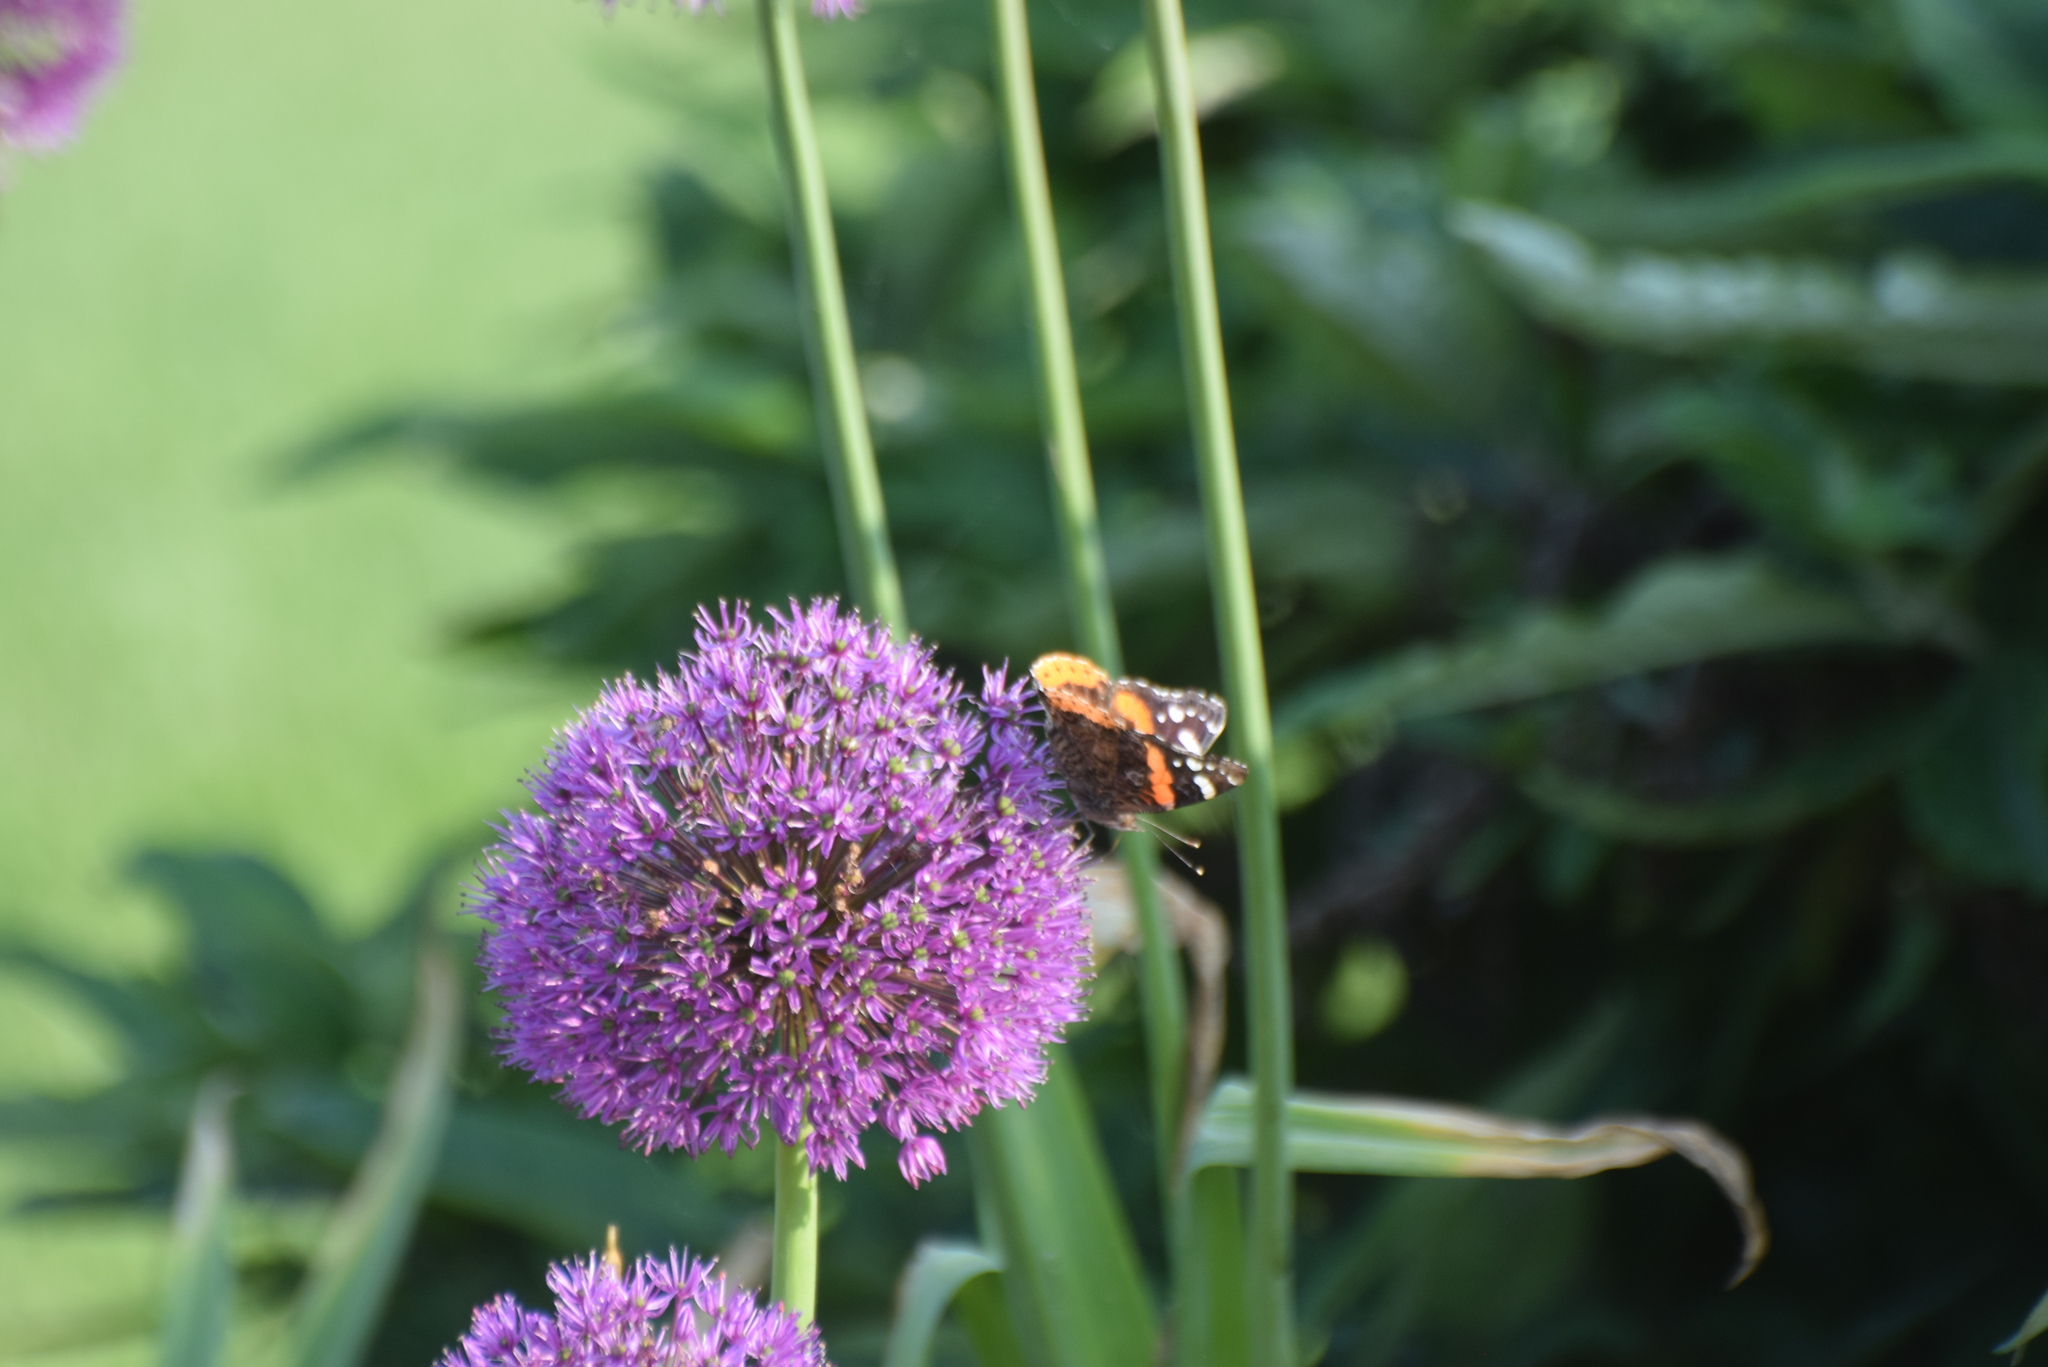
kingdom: Animalia
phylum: Arthropoda
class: Insecta
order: Lepidoptera
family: Nymphalidae
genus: Vanessa
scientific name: Vanessa atalanta
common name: Red admiral
